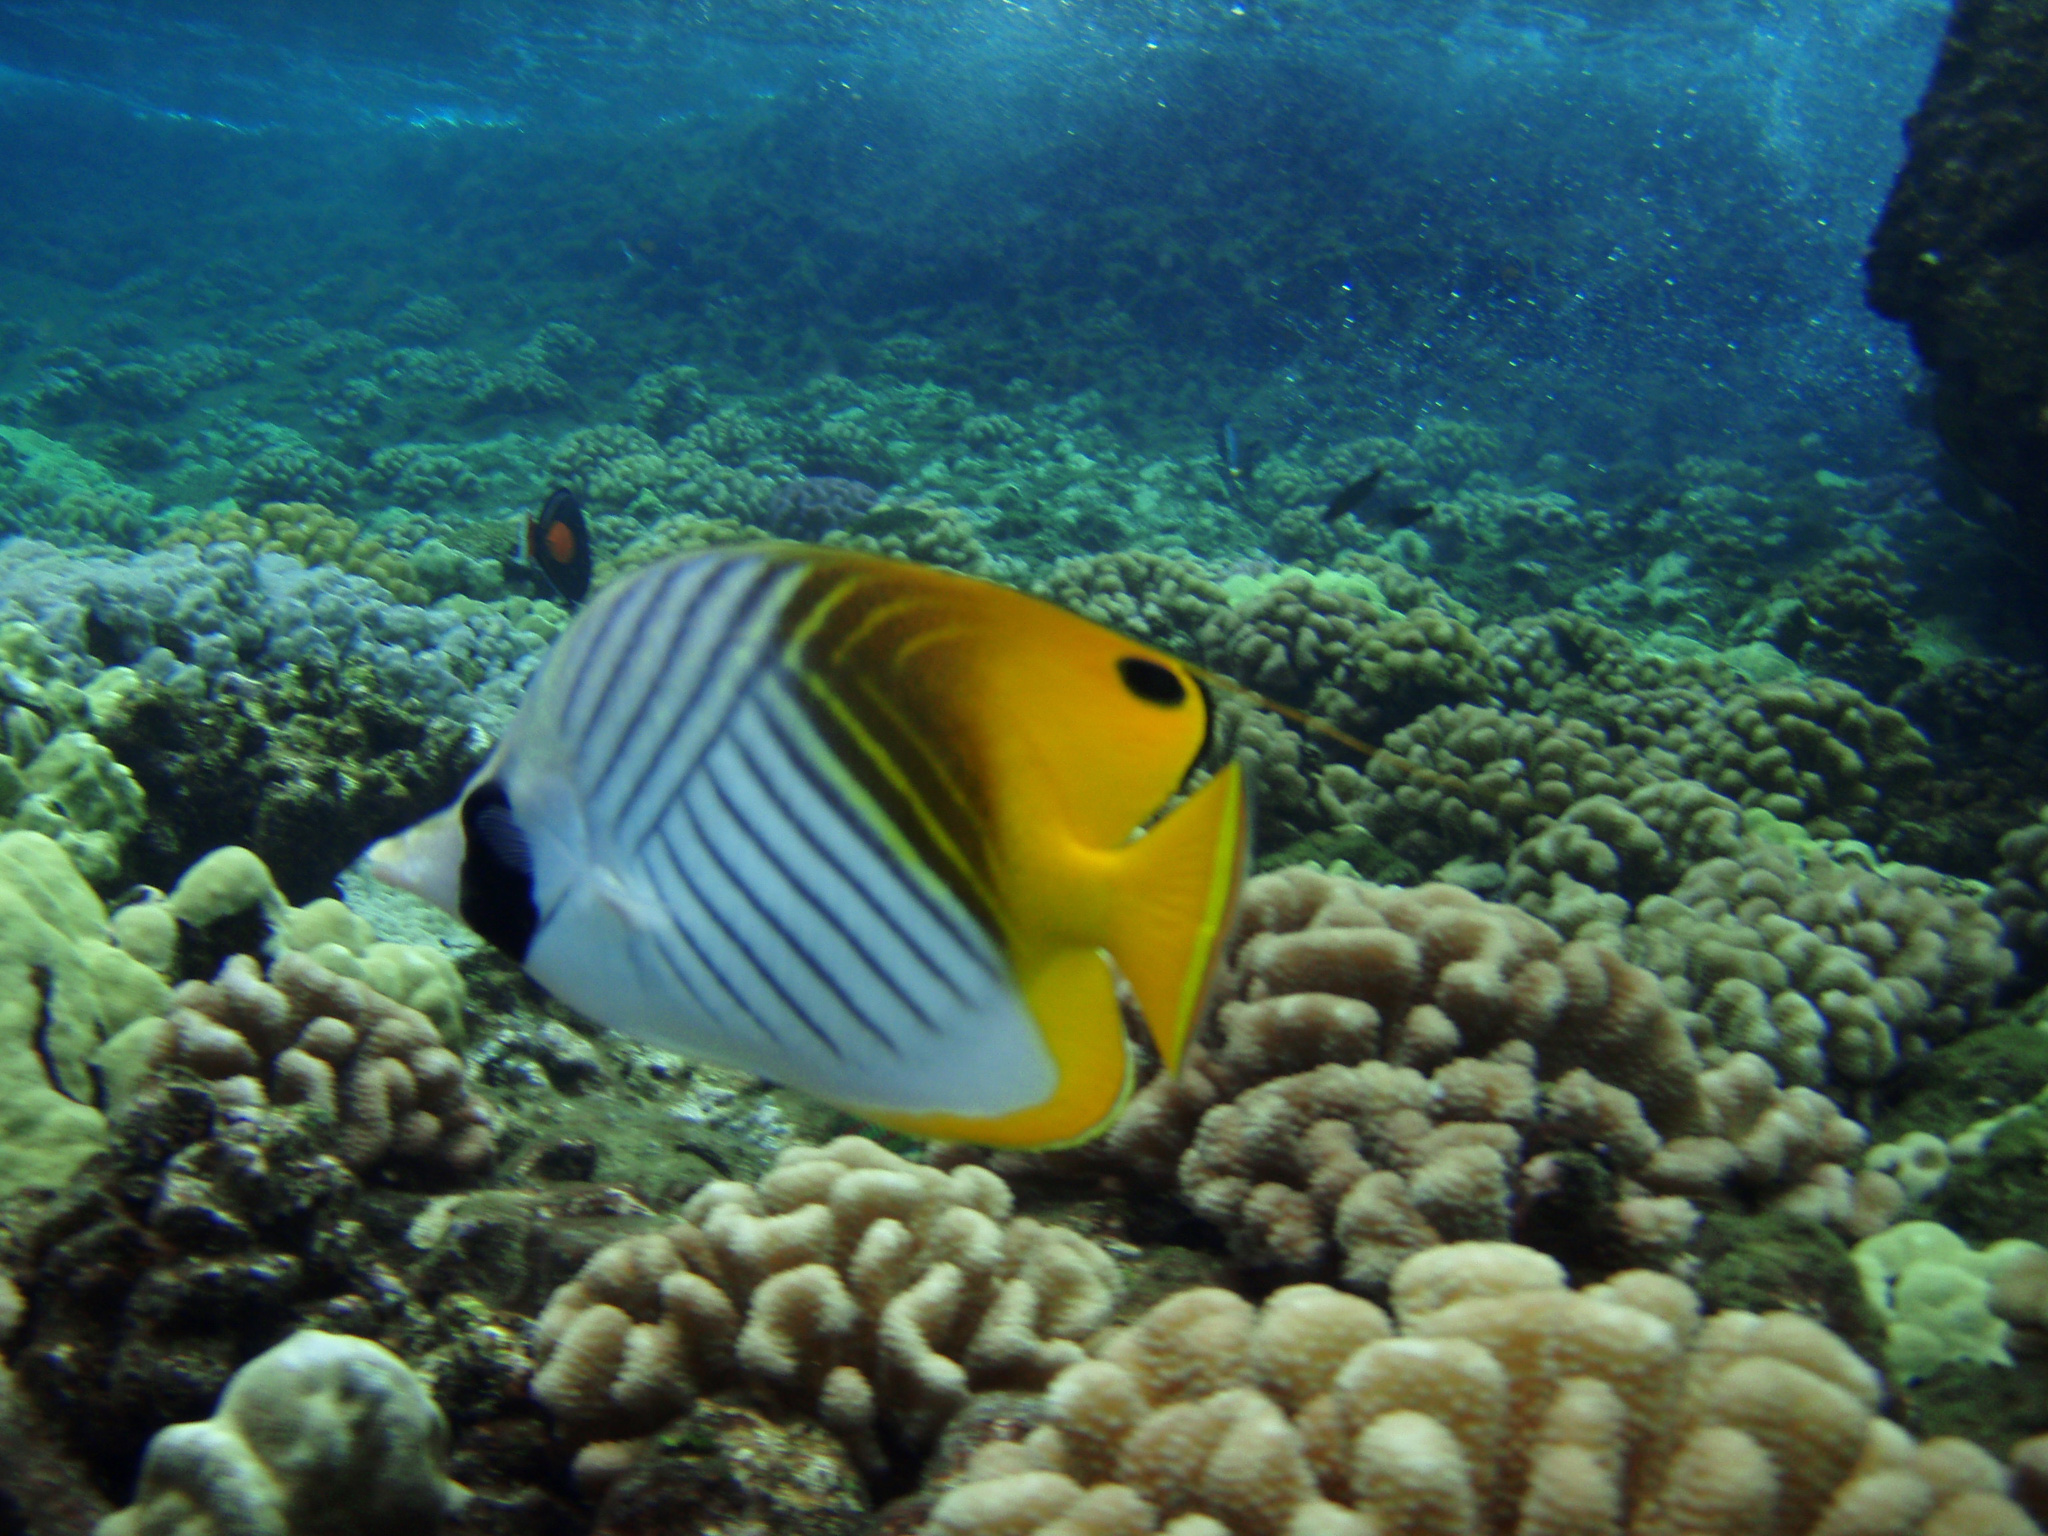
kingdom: Animalia
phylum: Chordata
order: Perciformes
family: Chaetodontidae
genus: Chaetodon
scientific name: Chaetodon auriga
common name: Threadfin butterflyfish
